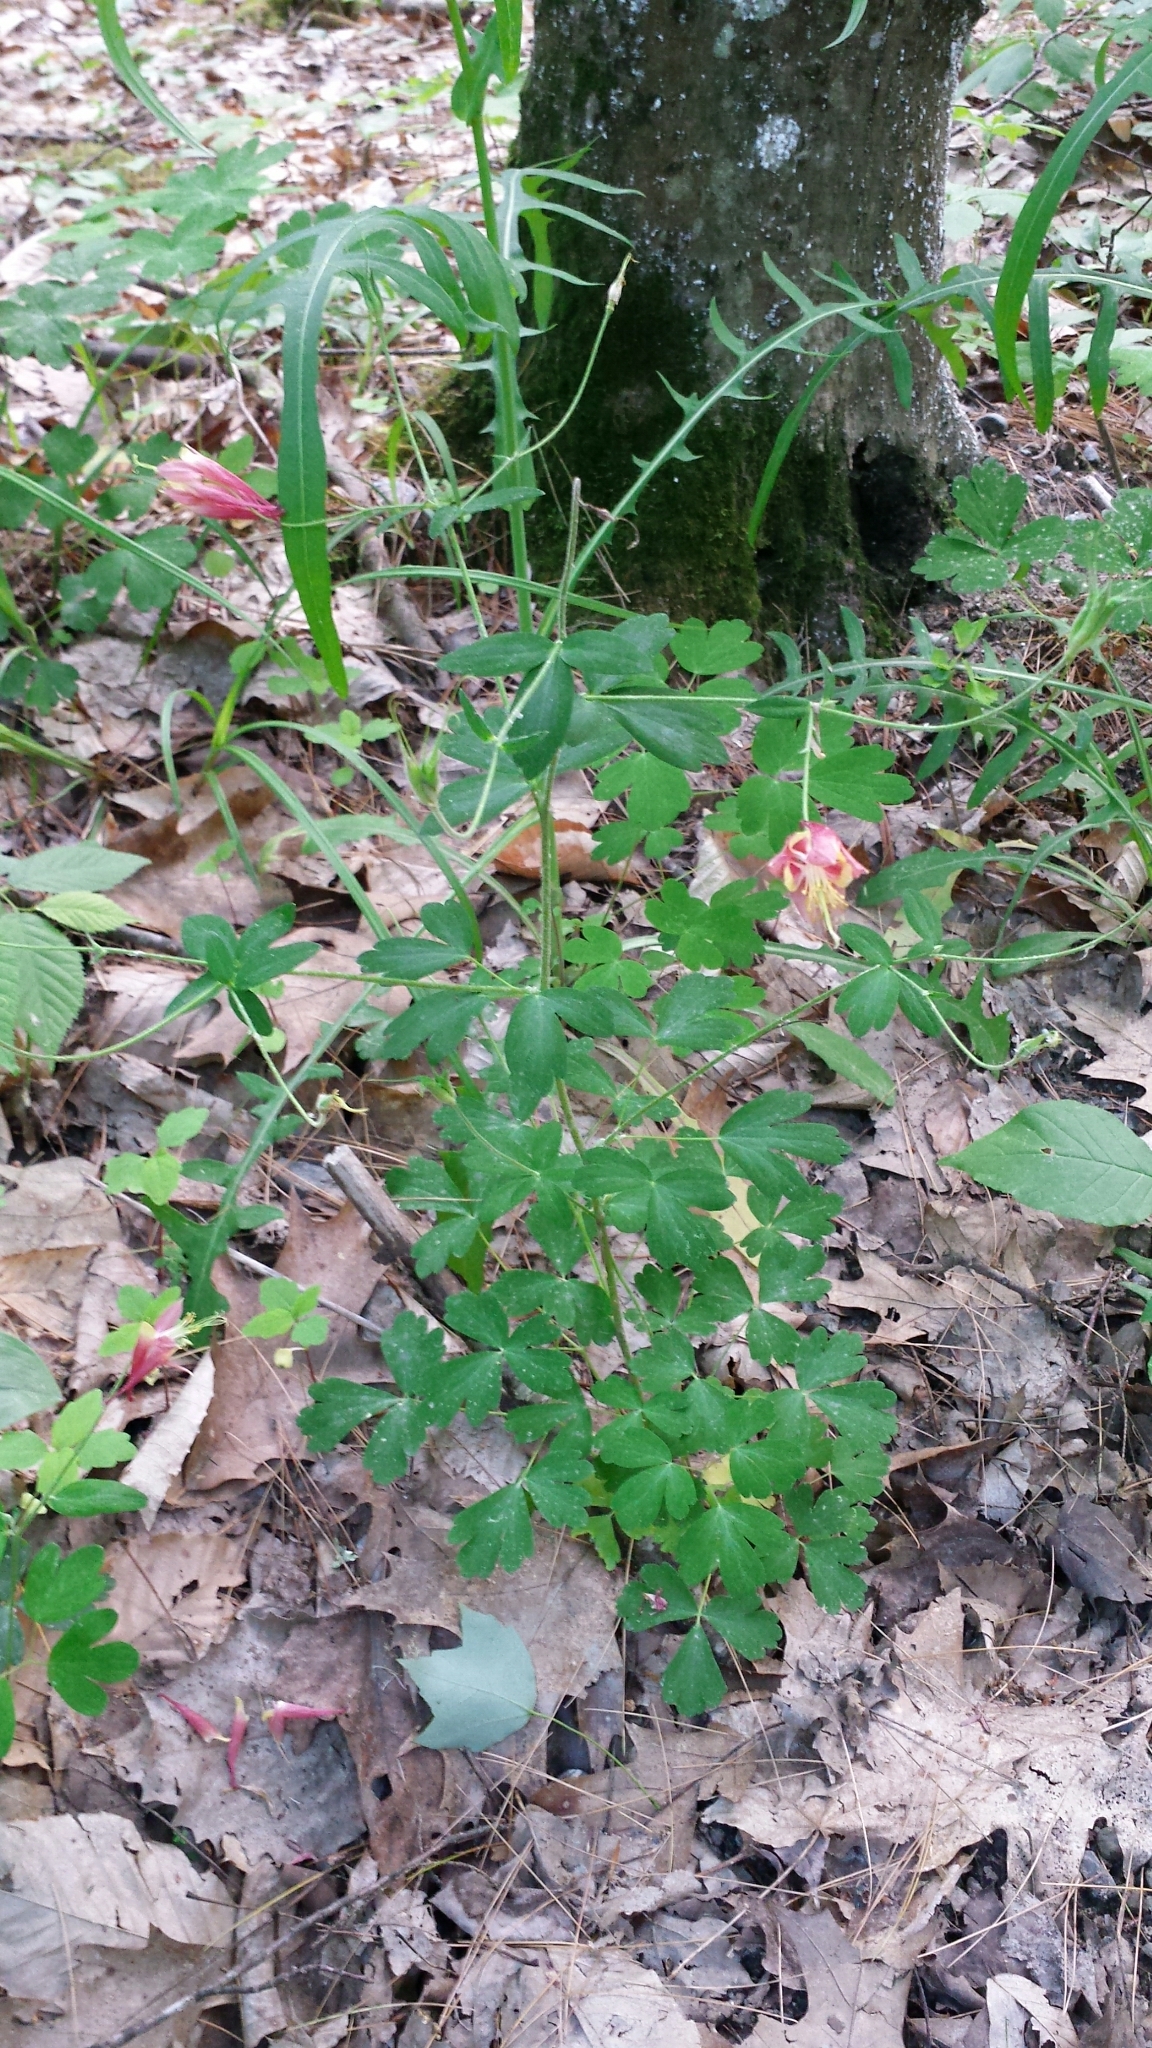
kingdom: Plantae
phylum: Tracheophyta
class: Magnoliopsida
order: Ranunculales
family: Ranunculaceae
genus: Aquilegia
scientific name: Aquilegia canadensis
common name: American columbine
